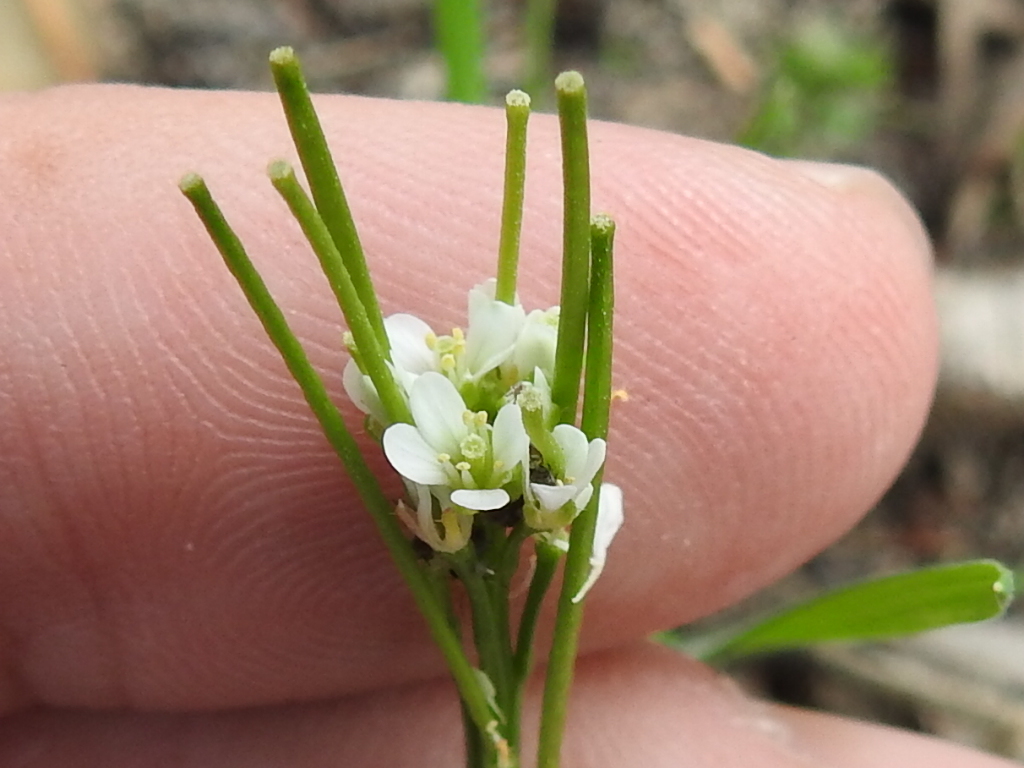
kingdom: Plantae
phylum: Tracheophyta
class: Magnoliopsida
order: Brassicales
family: Brassicaceae
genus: Cardamine
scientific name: Cardamine hirsuta
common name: Hairy bittercress
